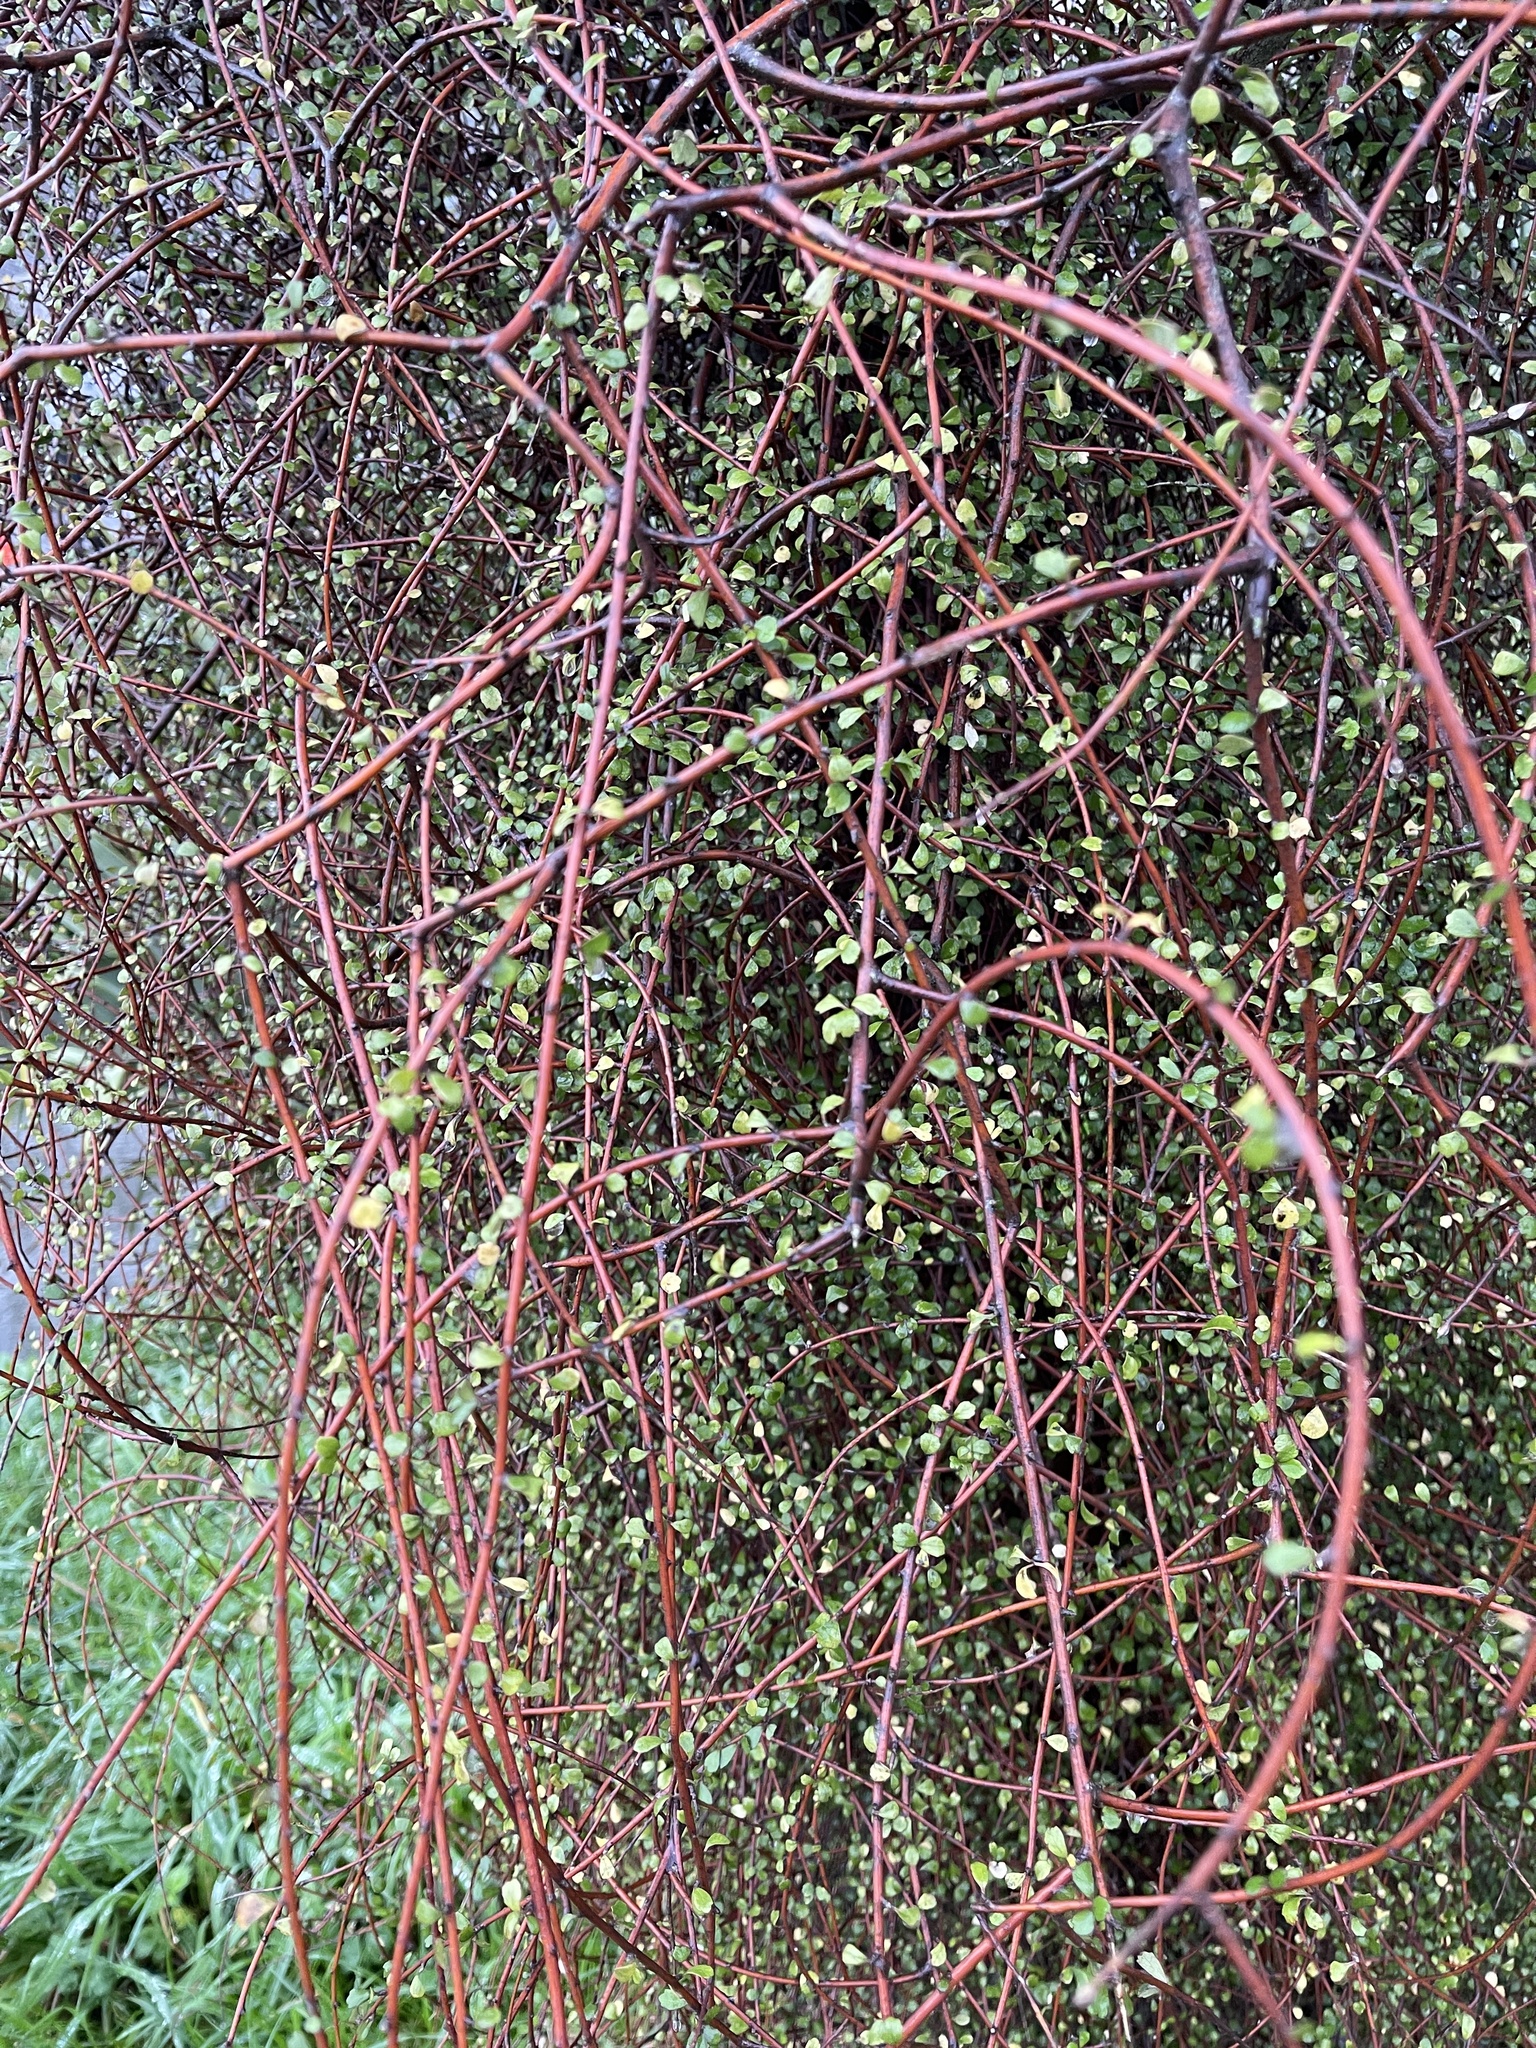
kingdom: Plantae
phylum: Tracheophyta
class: Magnoliopsida
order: Ericales
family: Primulaceae
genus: Myrsine
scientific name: Myrsine divaricata
